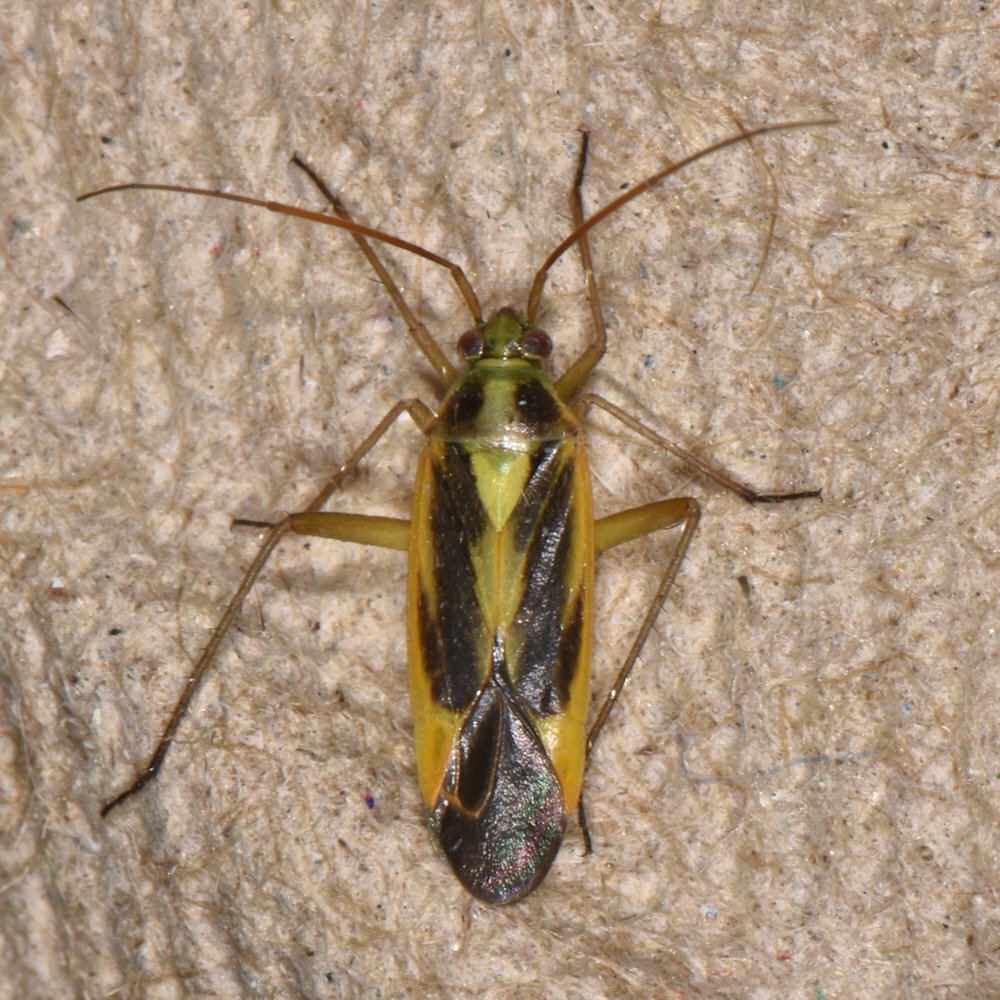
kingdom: Animalia
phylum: Arthropoda
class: Insecta
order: Hemiptera
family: Miridae
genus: Stenotus
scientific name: Stenotus binotatus
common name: Plant bug
